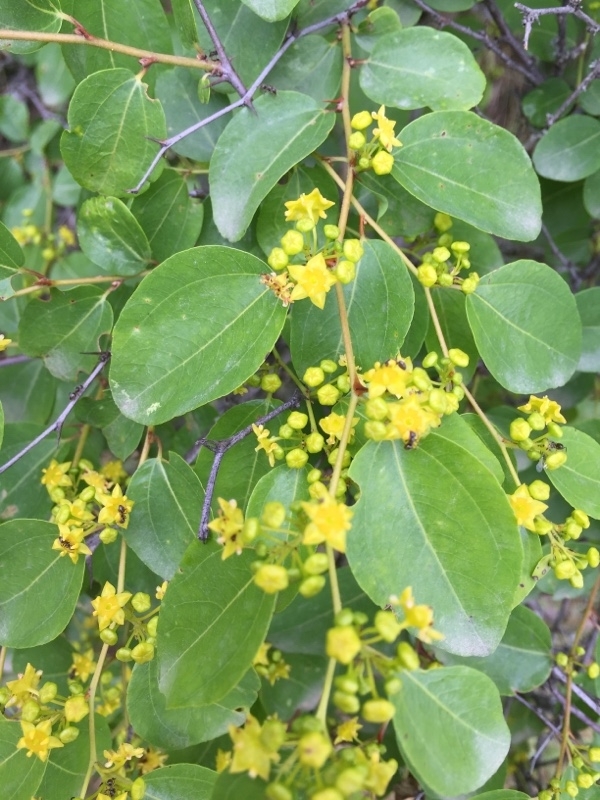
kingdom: Plantae
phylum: Tracheophyta
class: Magnoliopsida
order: Rosales
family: Rhamnaceae
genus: Paliurus
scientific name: Paliurus spina-christi
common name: Jeruselem thorn
